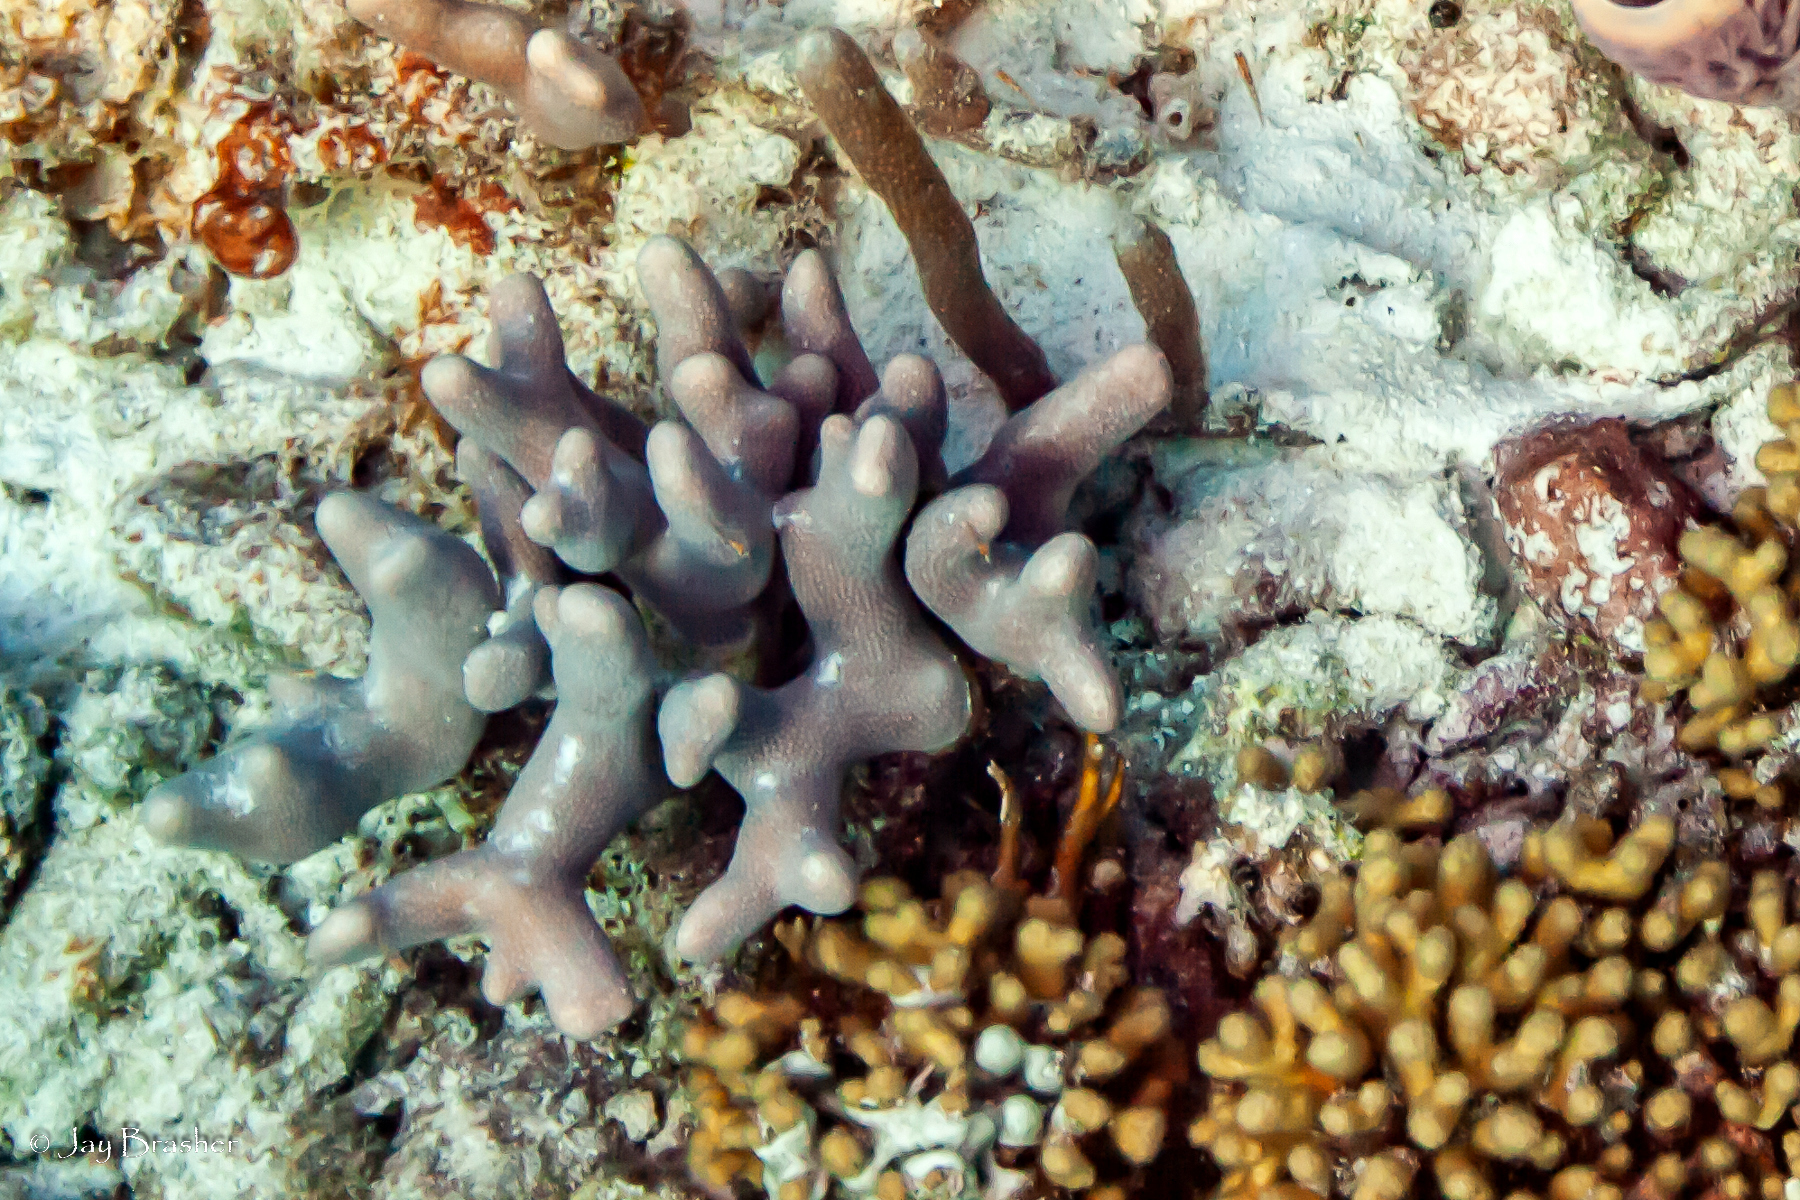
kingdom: Animalia
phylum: Cnidaria
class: Anthozoa
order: Scleractinia
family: Poritidae
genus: Porites
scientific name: Porites porites
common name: Finger coral
